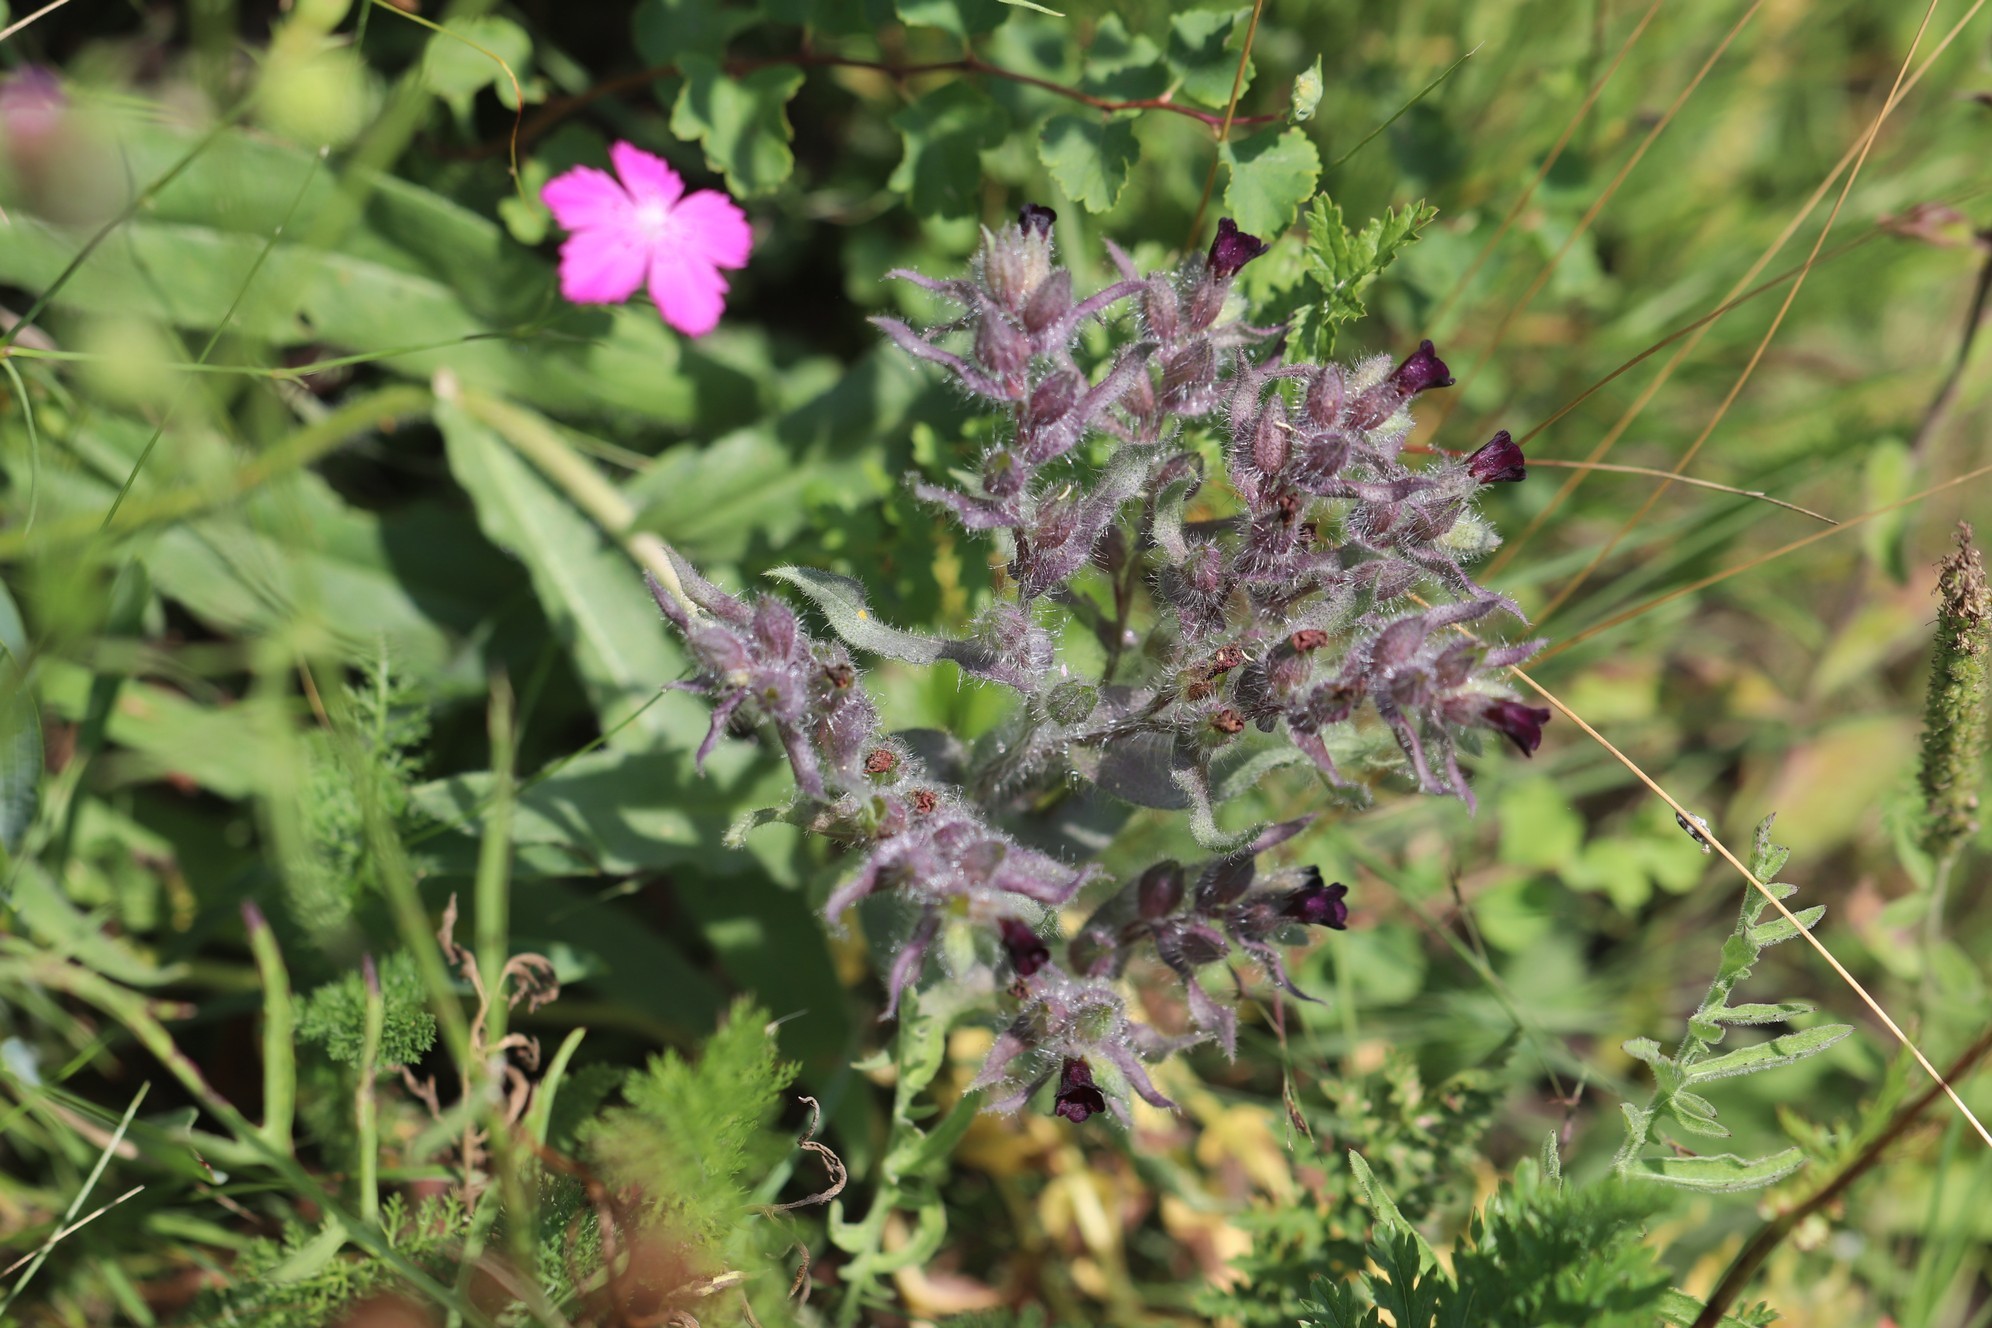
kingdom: Plantae
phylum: Tracheophyta
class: Magnoliopsida
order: Boraginales
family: Boraginaceae
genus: Nonea
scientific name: Nonea pulla
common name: Brown nonea
